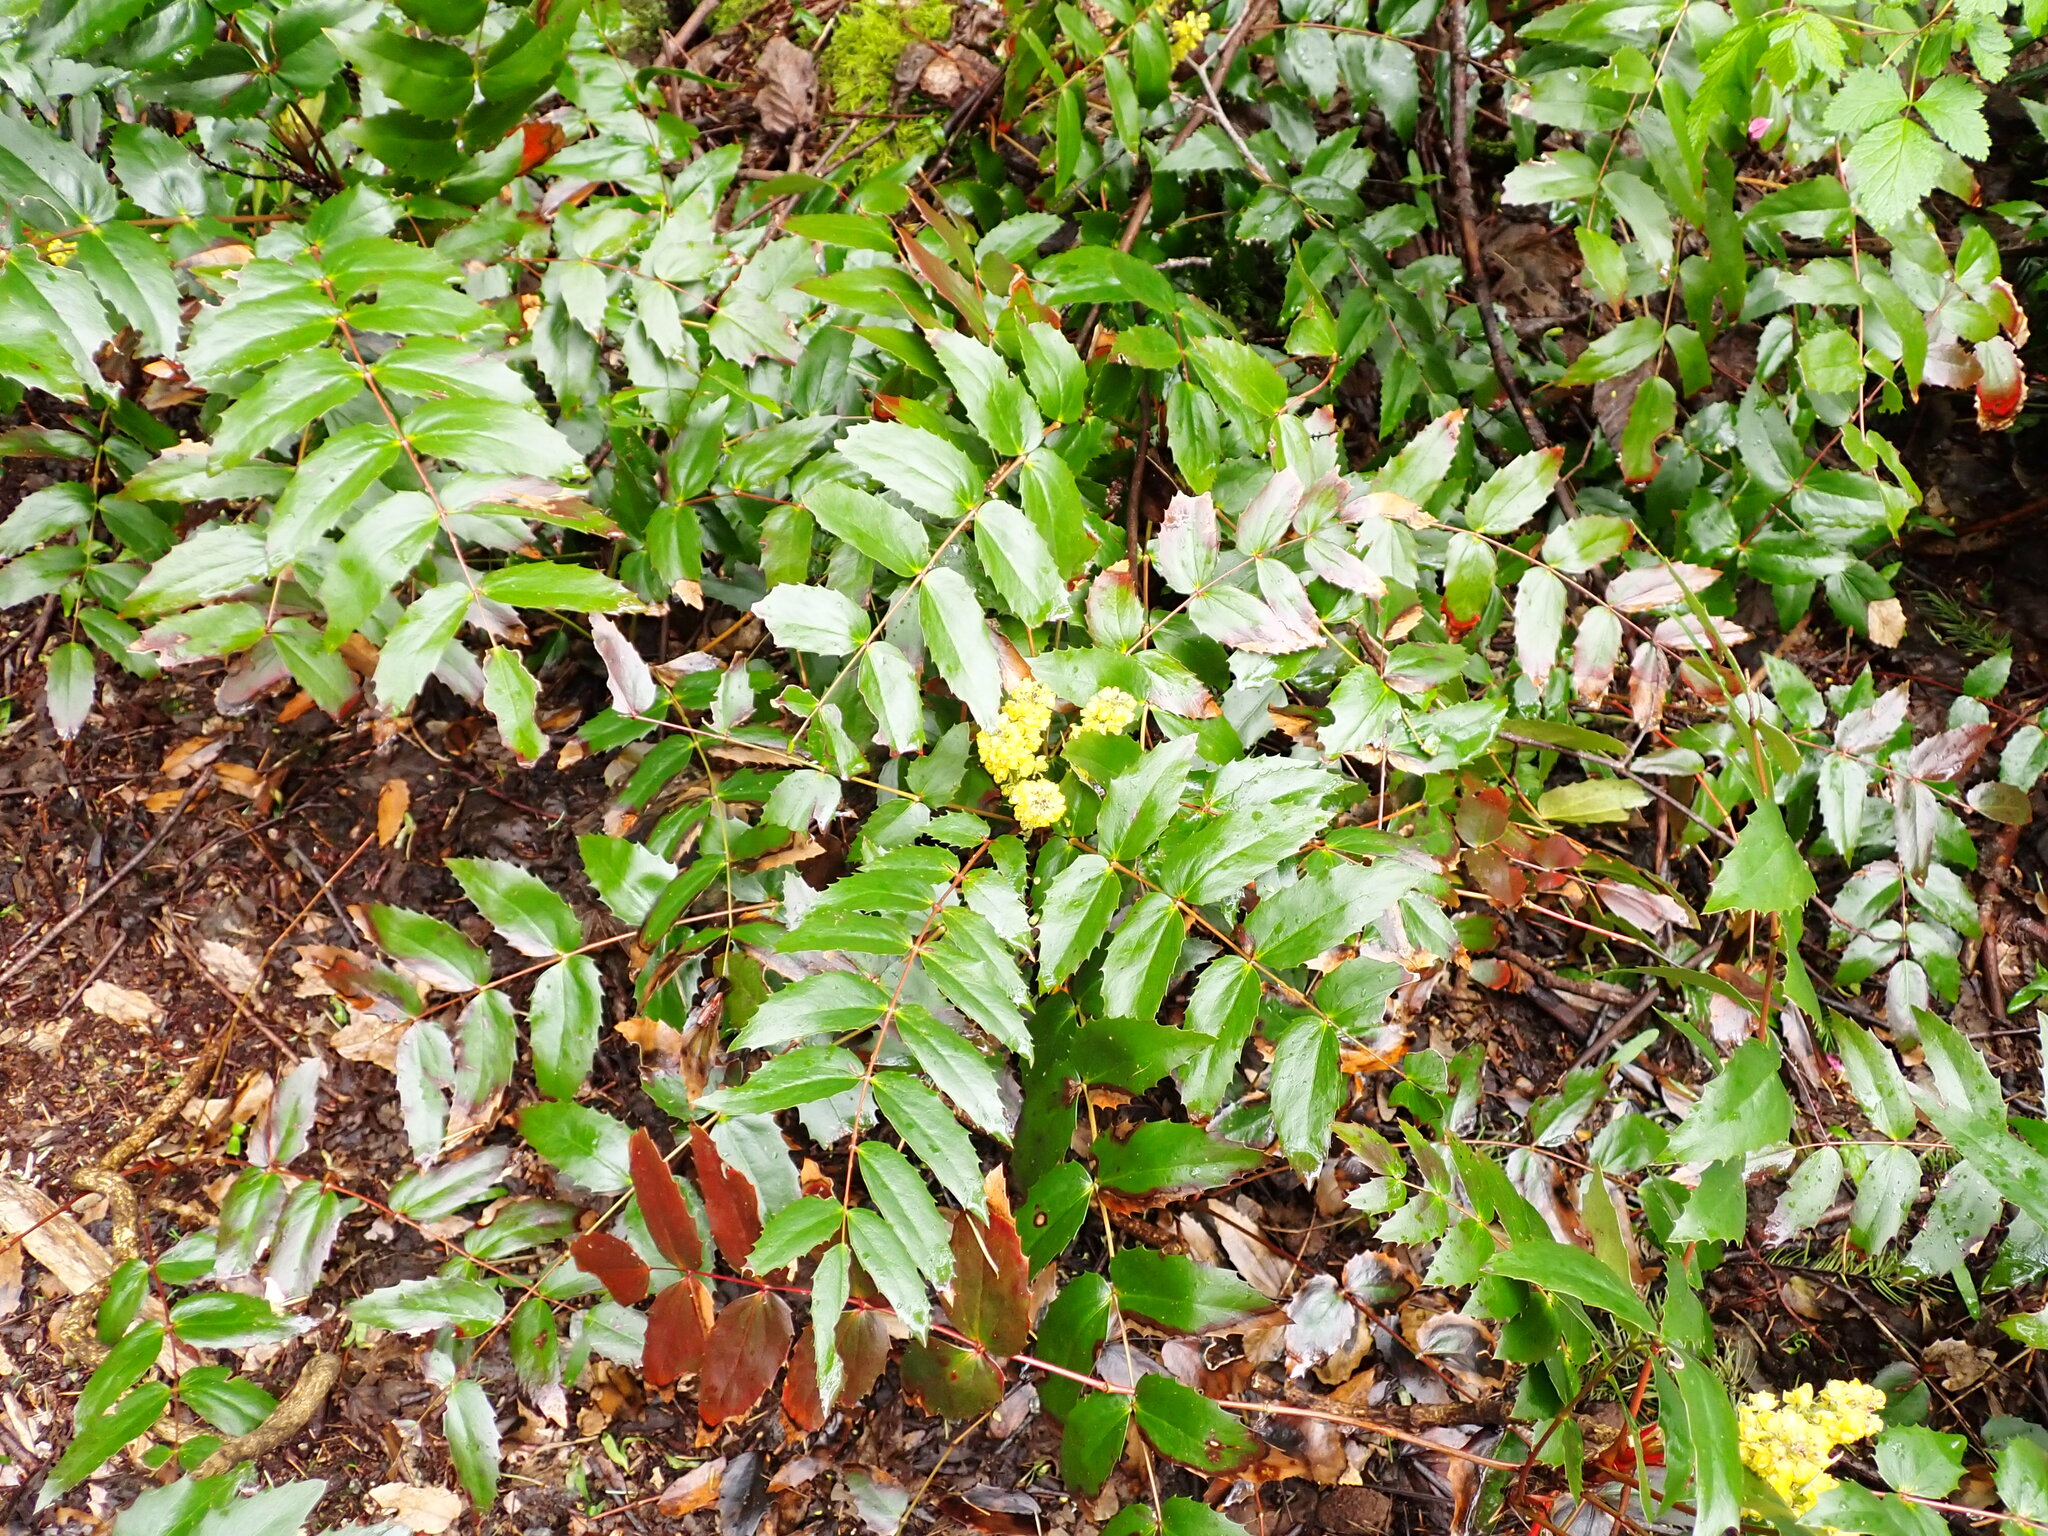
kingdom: Plantae
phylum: Tracheophyta
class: Magnoliopsida
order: Ranunculales
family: Berberidaceae
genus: Mahonia
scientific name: Mahonia nervosa
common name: Cascade oregon-grape
